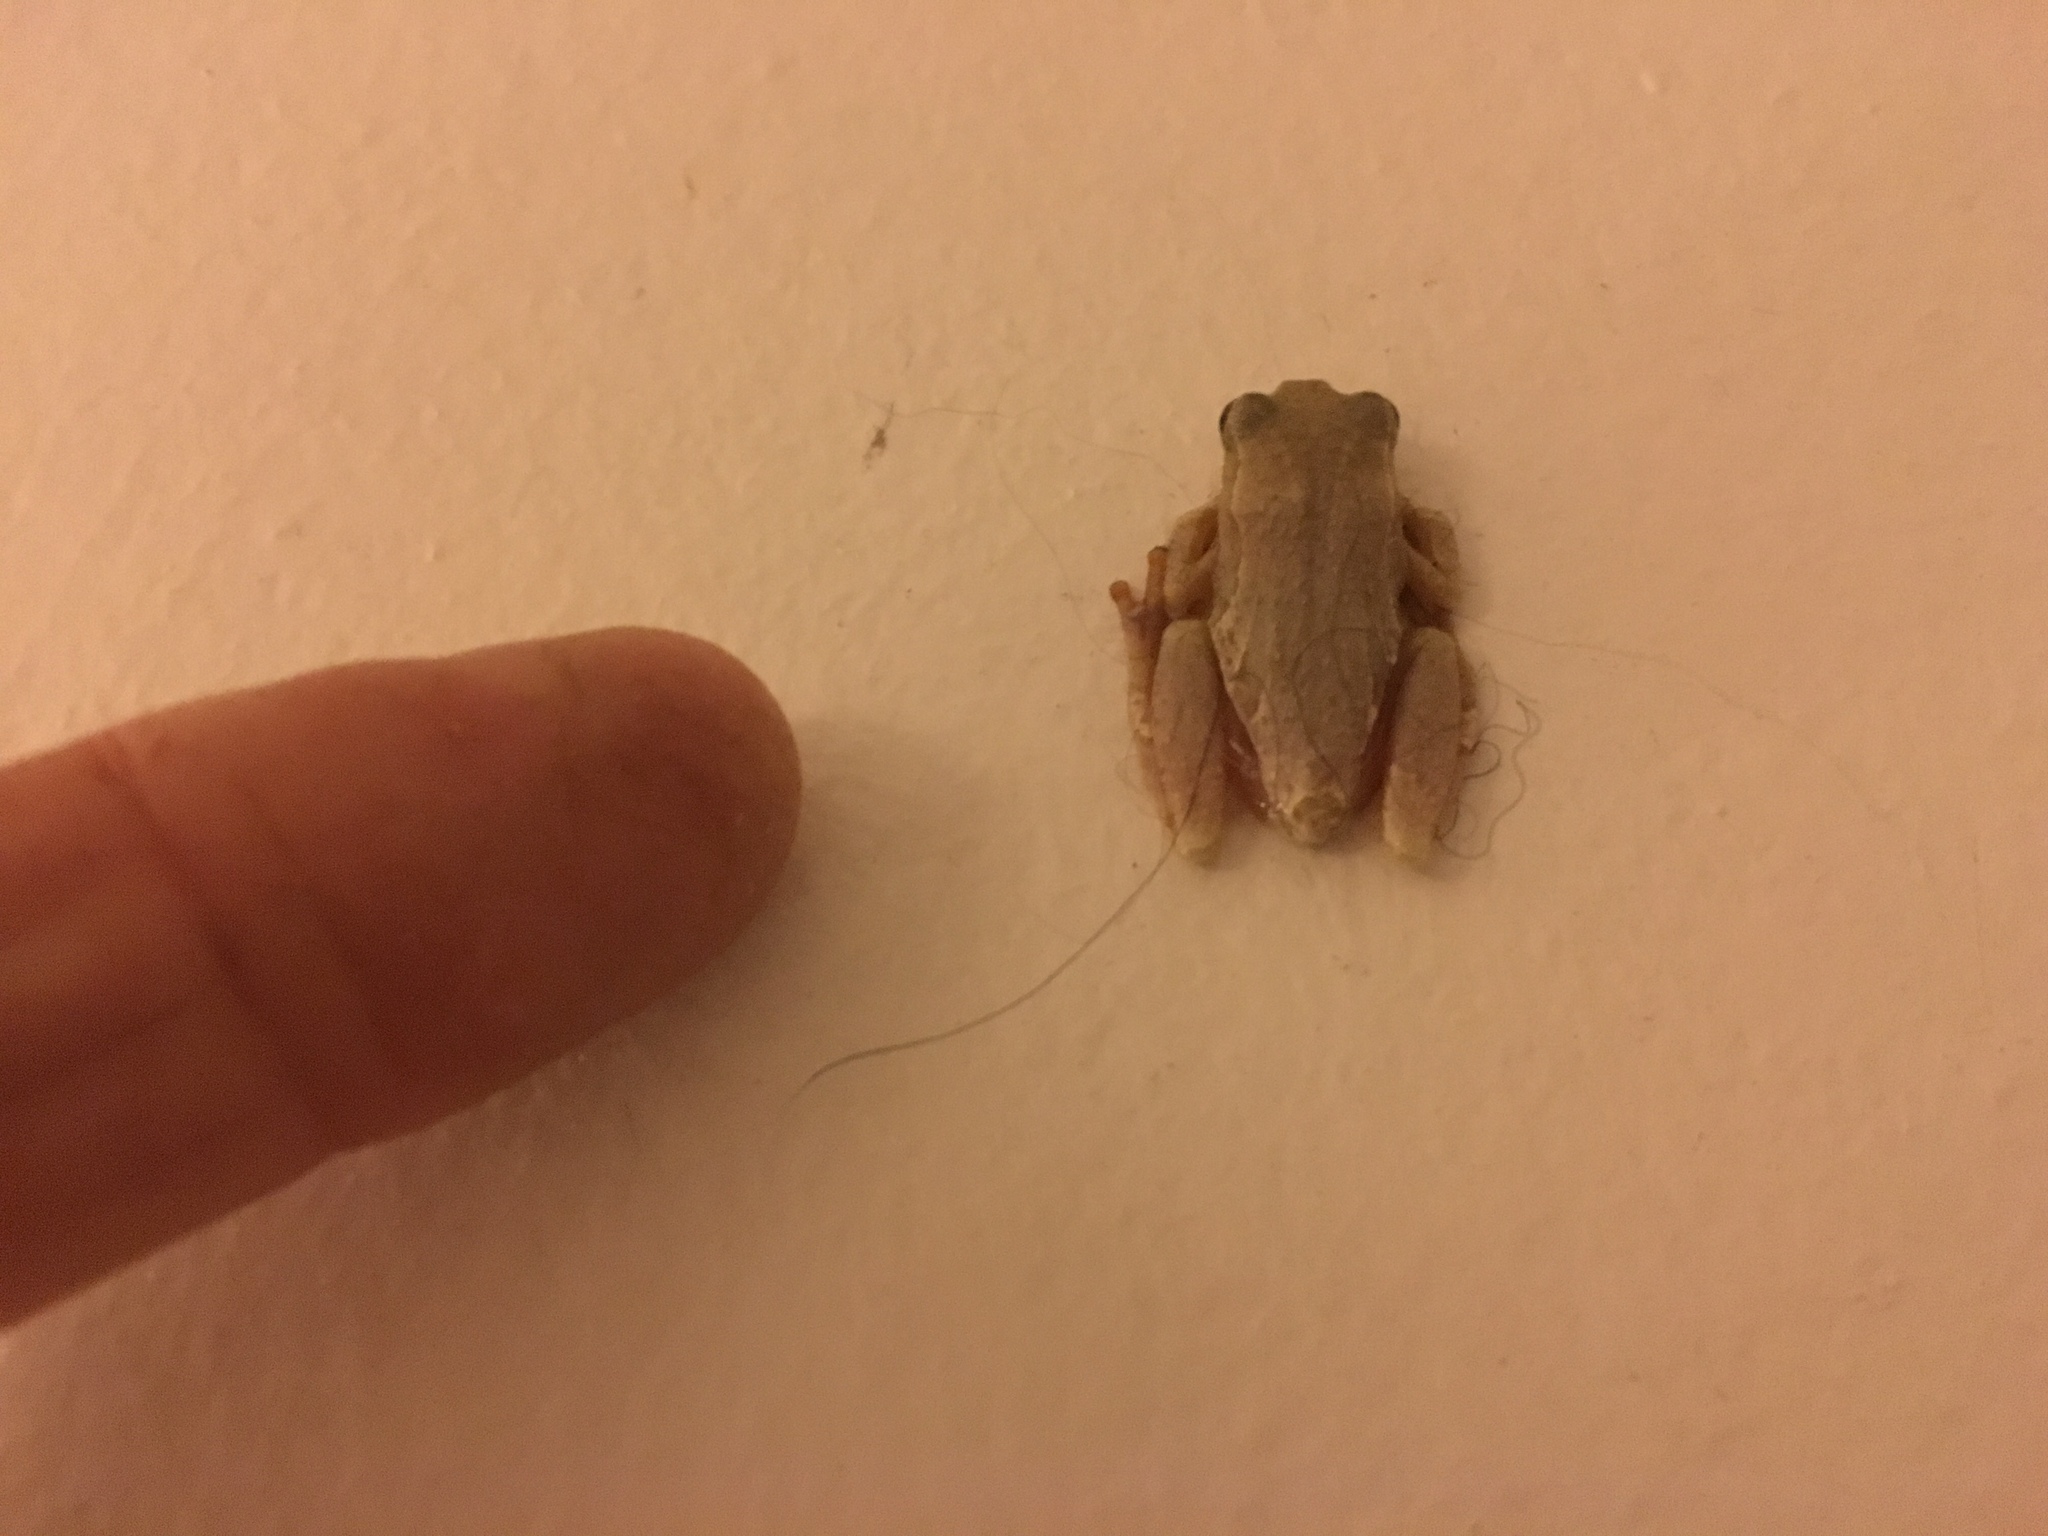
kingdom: Animalia
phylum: Chordata
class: Amphibia
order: Anura
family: Hyperoliidae
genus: Hyperolius
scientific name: Hyperolius marmoratus
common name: Painted reed frog
